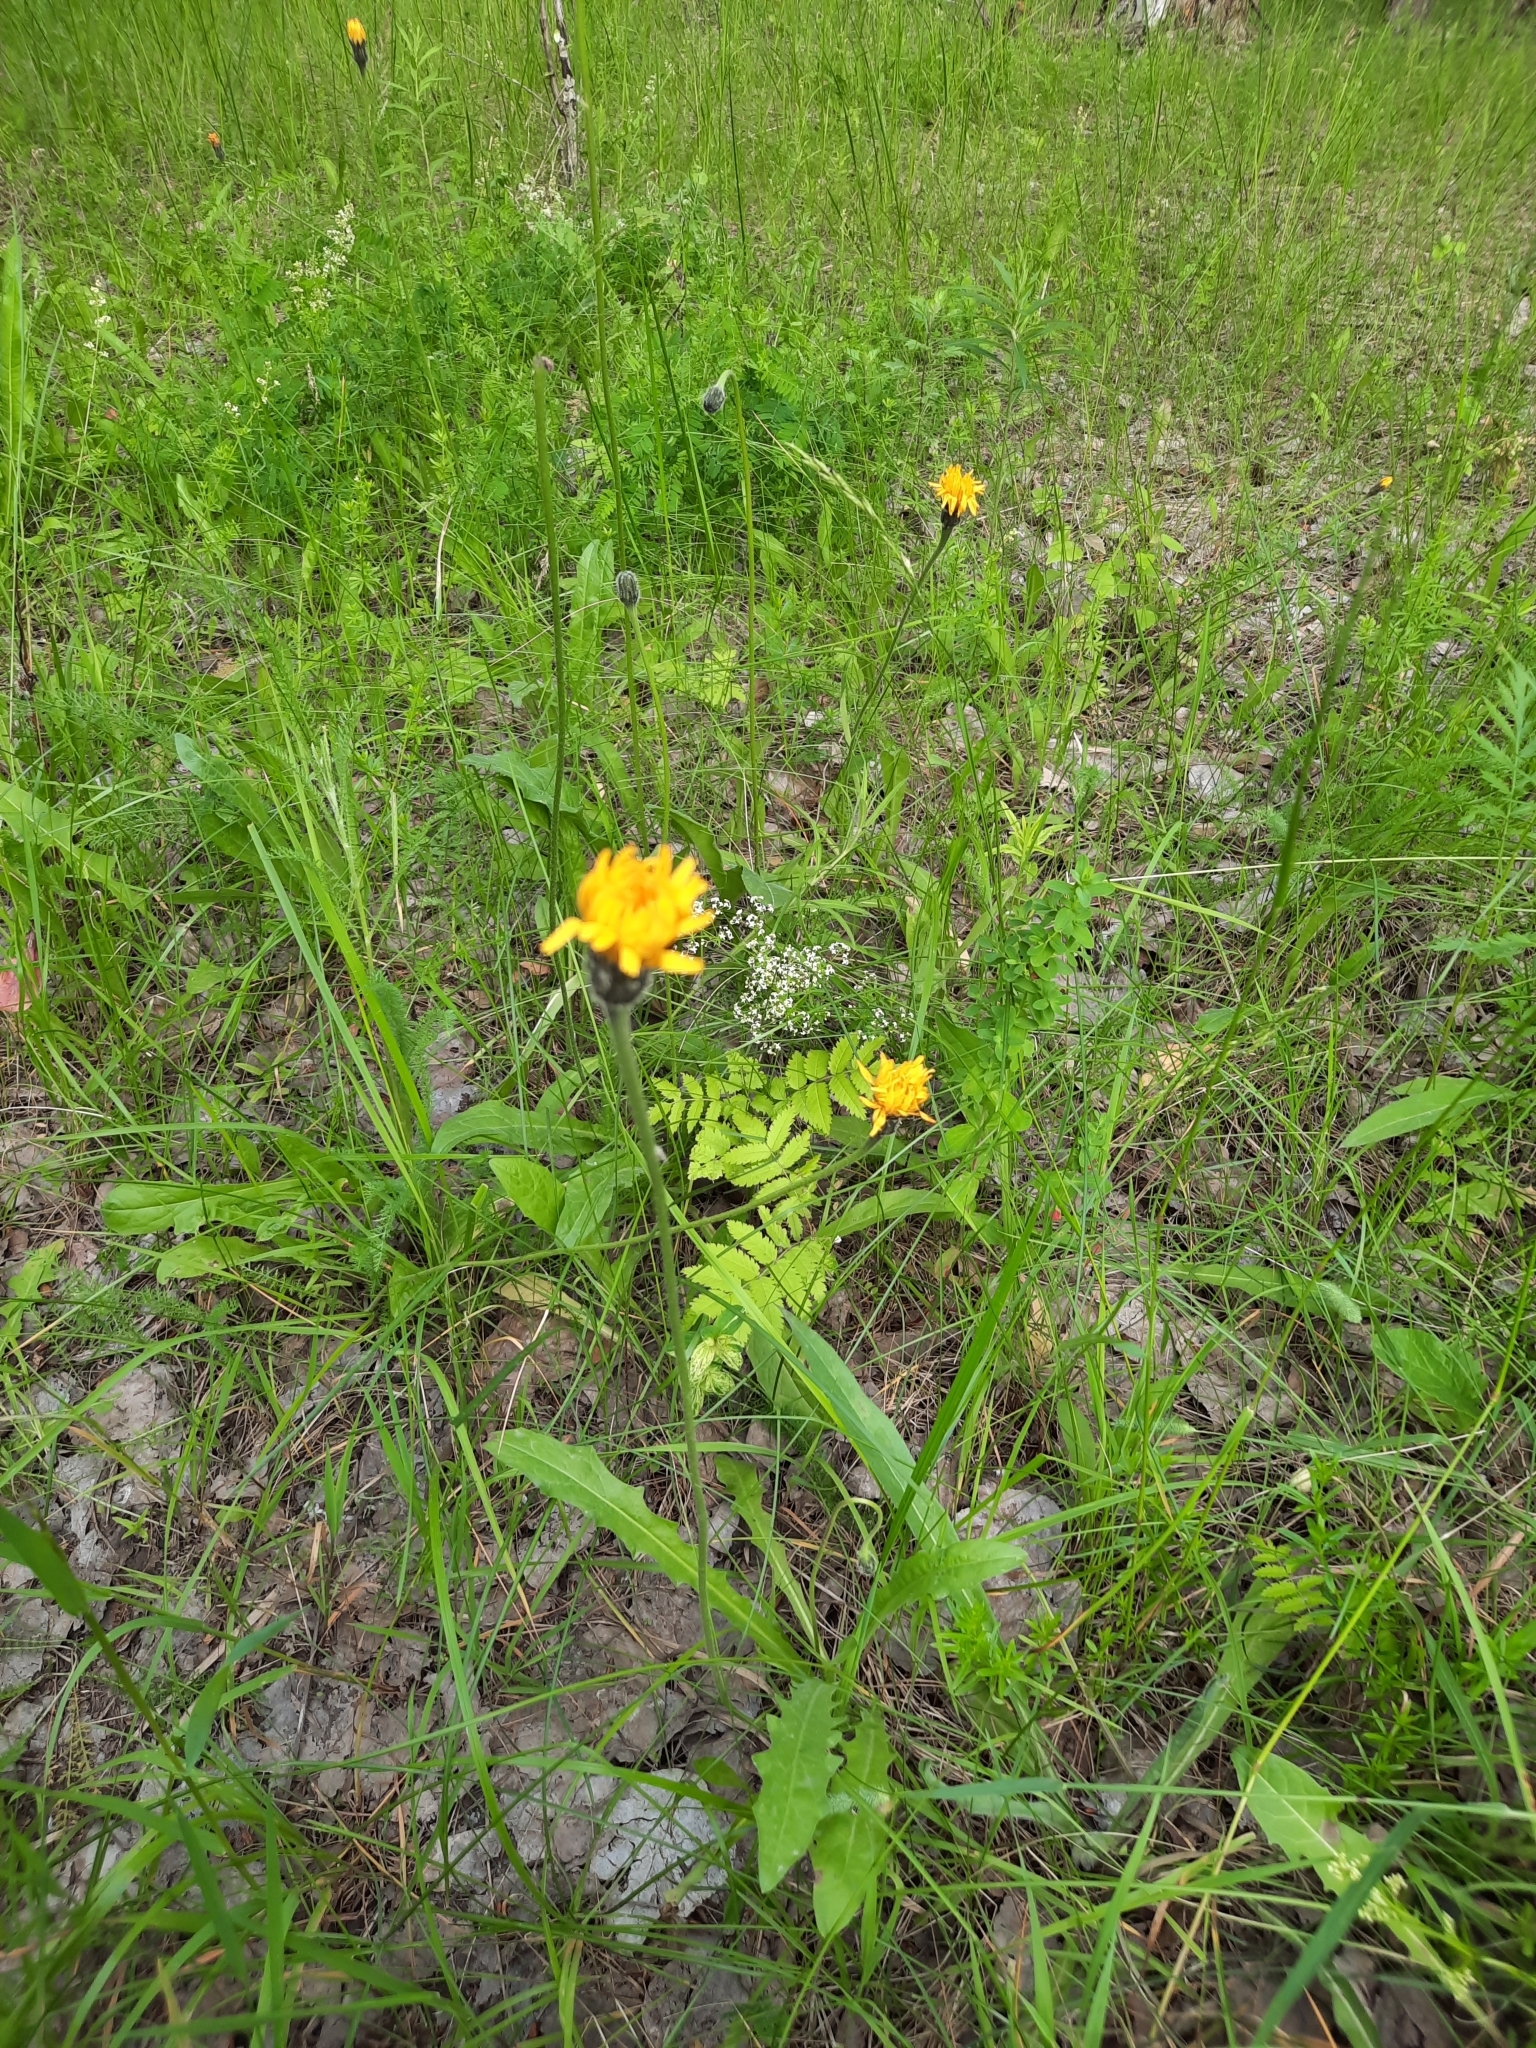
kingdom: Plantae
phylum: Tracheophyta
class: Magnoliopsida
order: Asterales
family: Asteraceae
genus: Leontodon
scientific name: Leontodon hispidus
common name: Rough hawkbit
